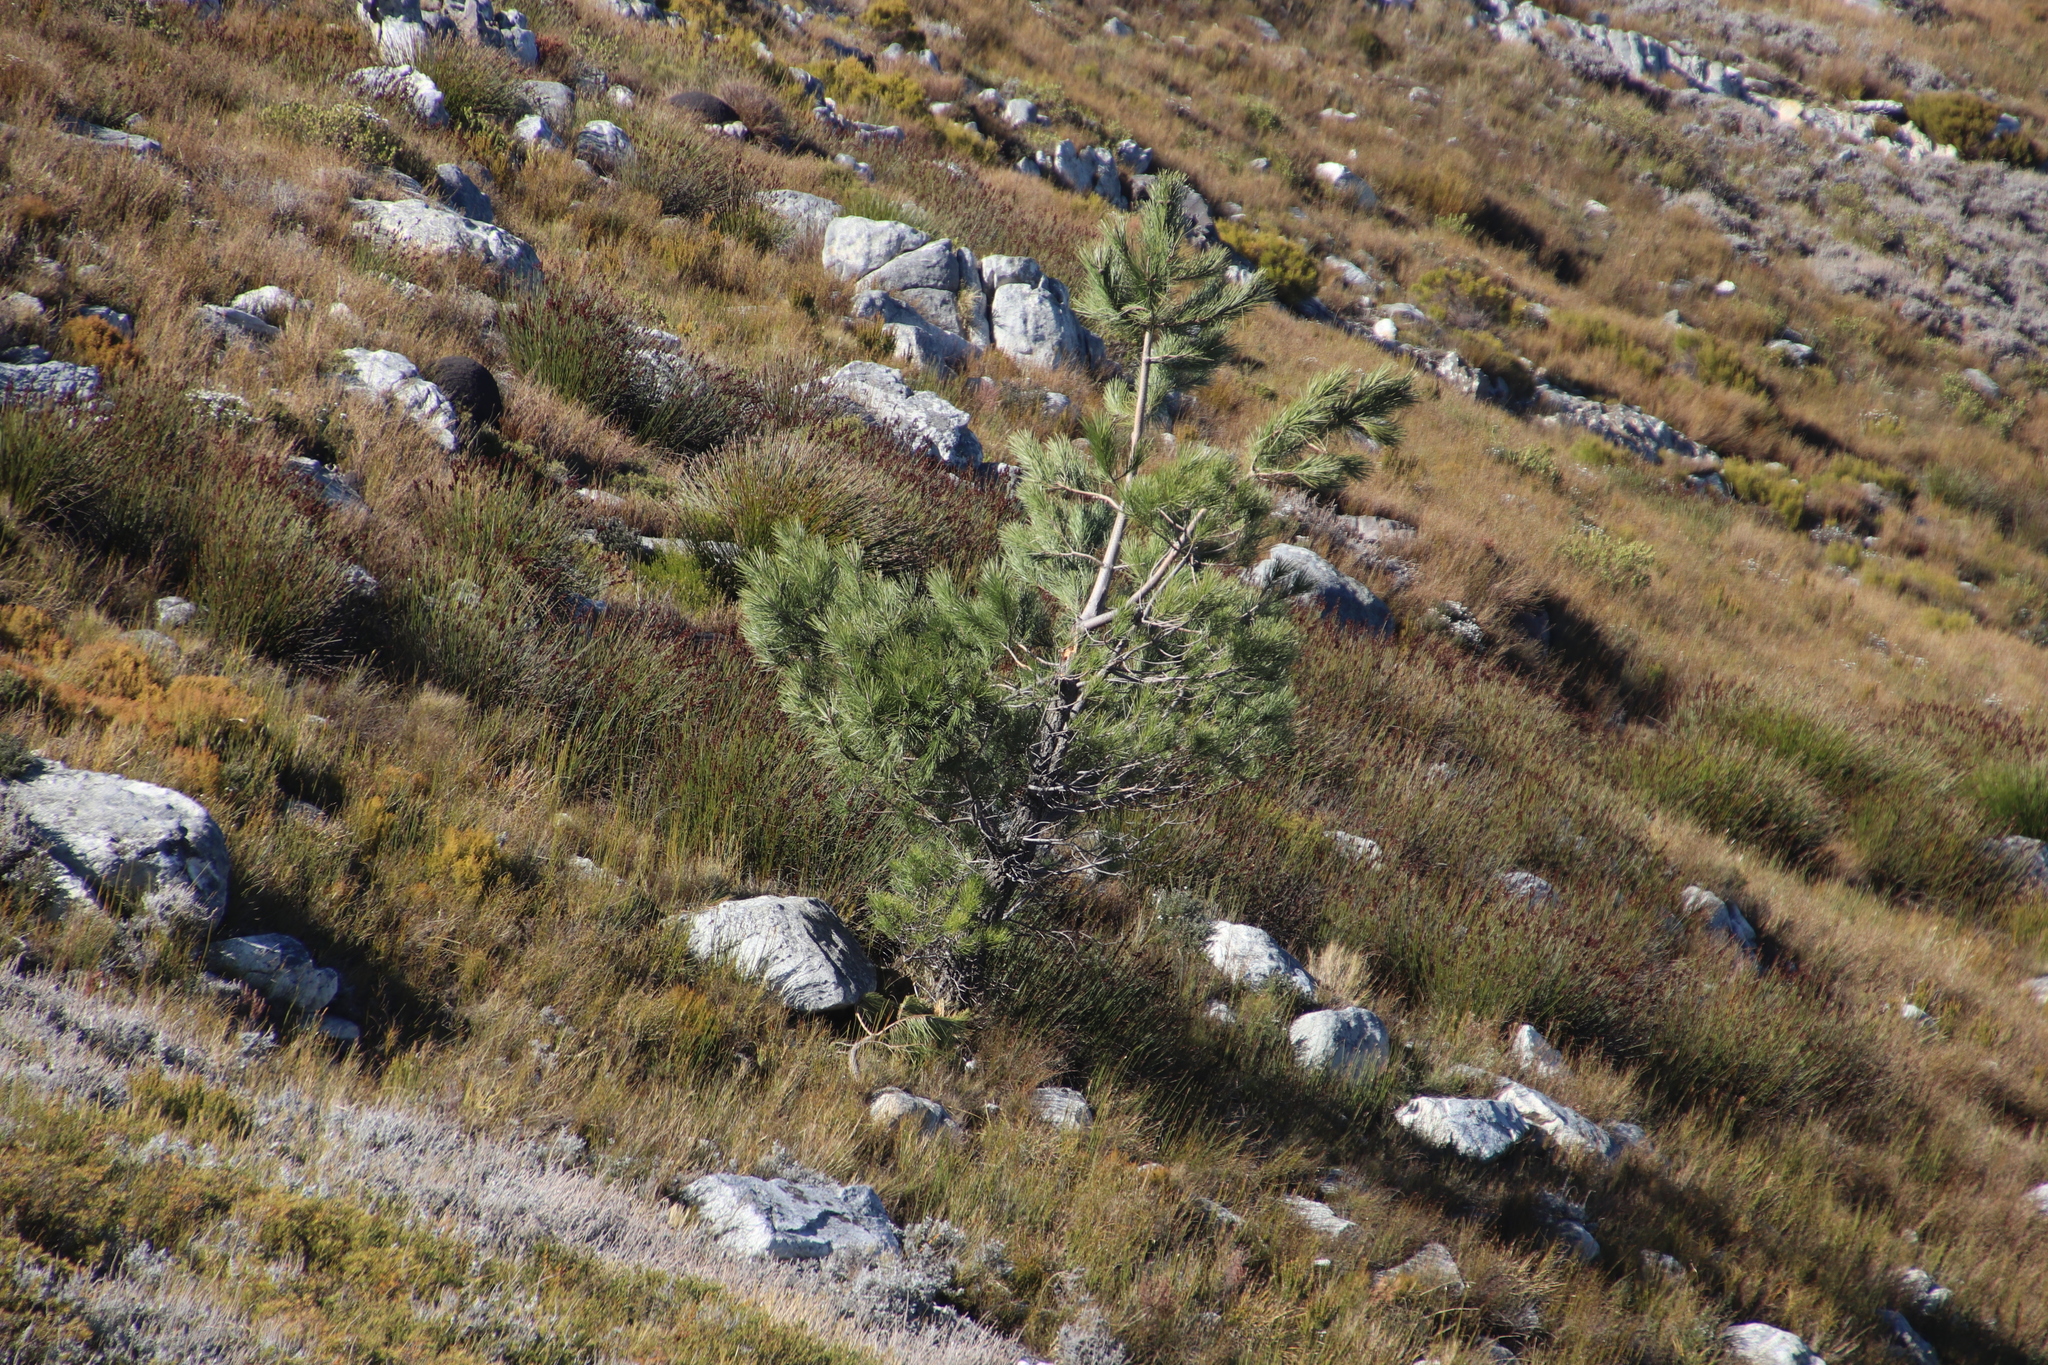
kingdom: Plantae
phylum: Tracheophyta
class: Pinopsida
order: Pinales
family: Pinaceae
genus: Pinus
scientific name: Pinus pinaster
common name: Maritime pine
